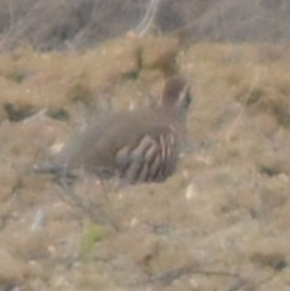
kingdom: Animalia
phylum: Chordata
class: Aves
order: Galliformes
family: Phasianidae
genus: Alectoris
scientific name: Alectoris rufa
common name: Red-legged partridge
